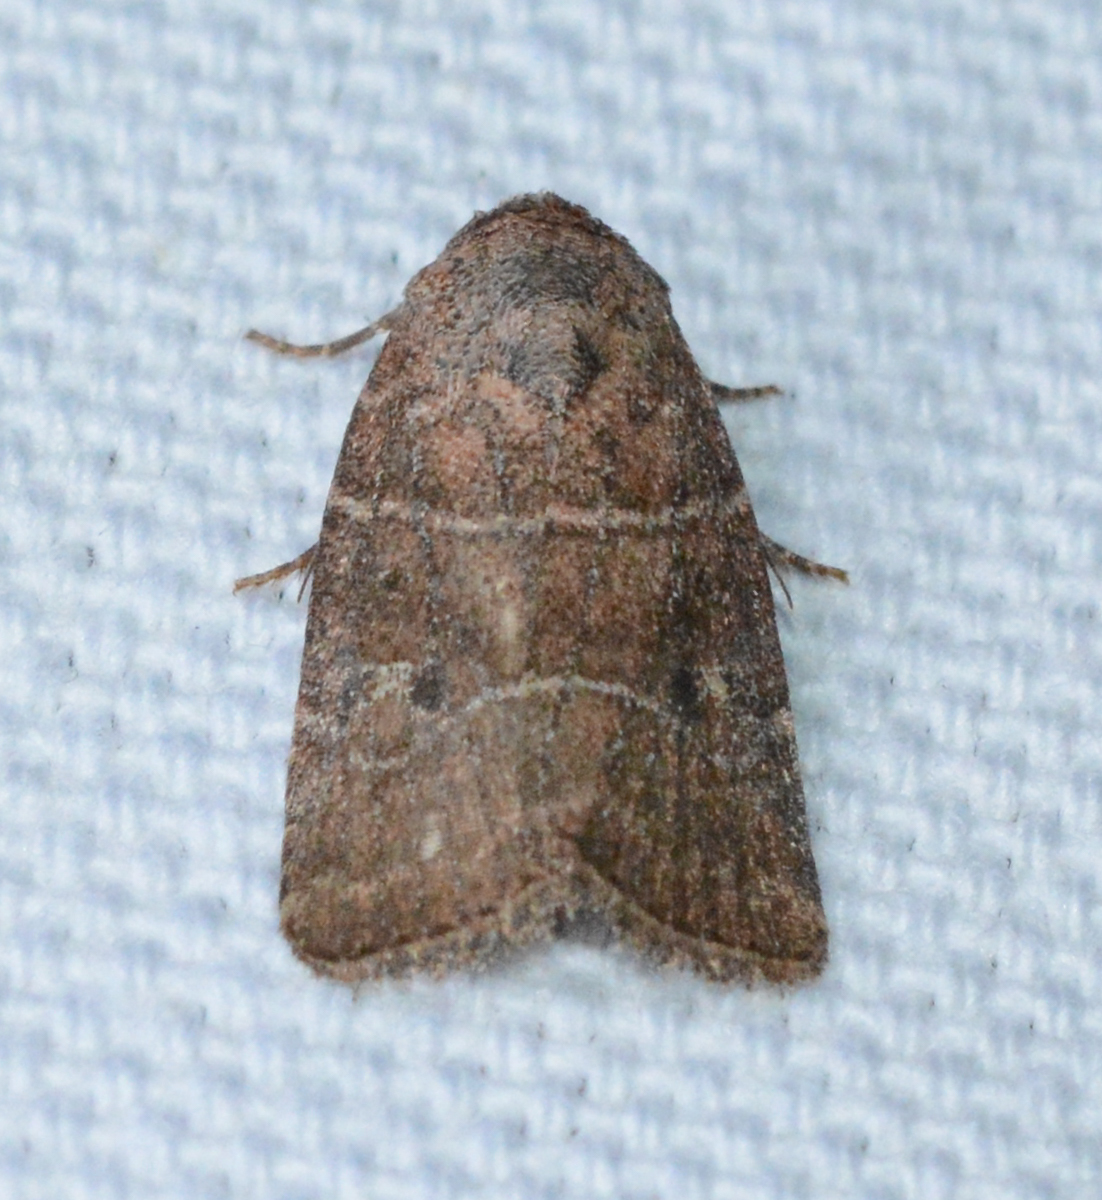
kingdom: Animalia
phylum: Arthropoda
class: Insecta
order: Lepidoptera
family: Noctuidae
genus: Elaphria
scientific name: Elaphria grata
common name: Grateful midget moth
